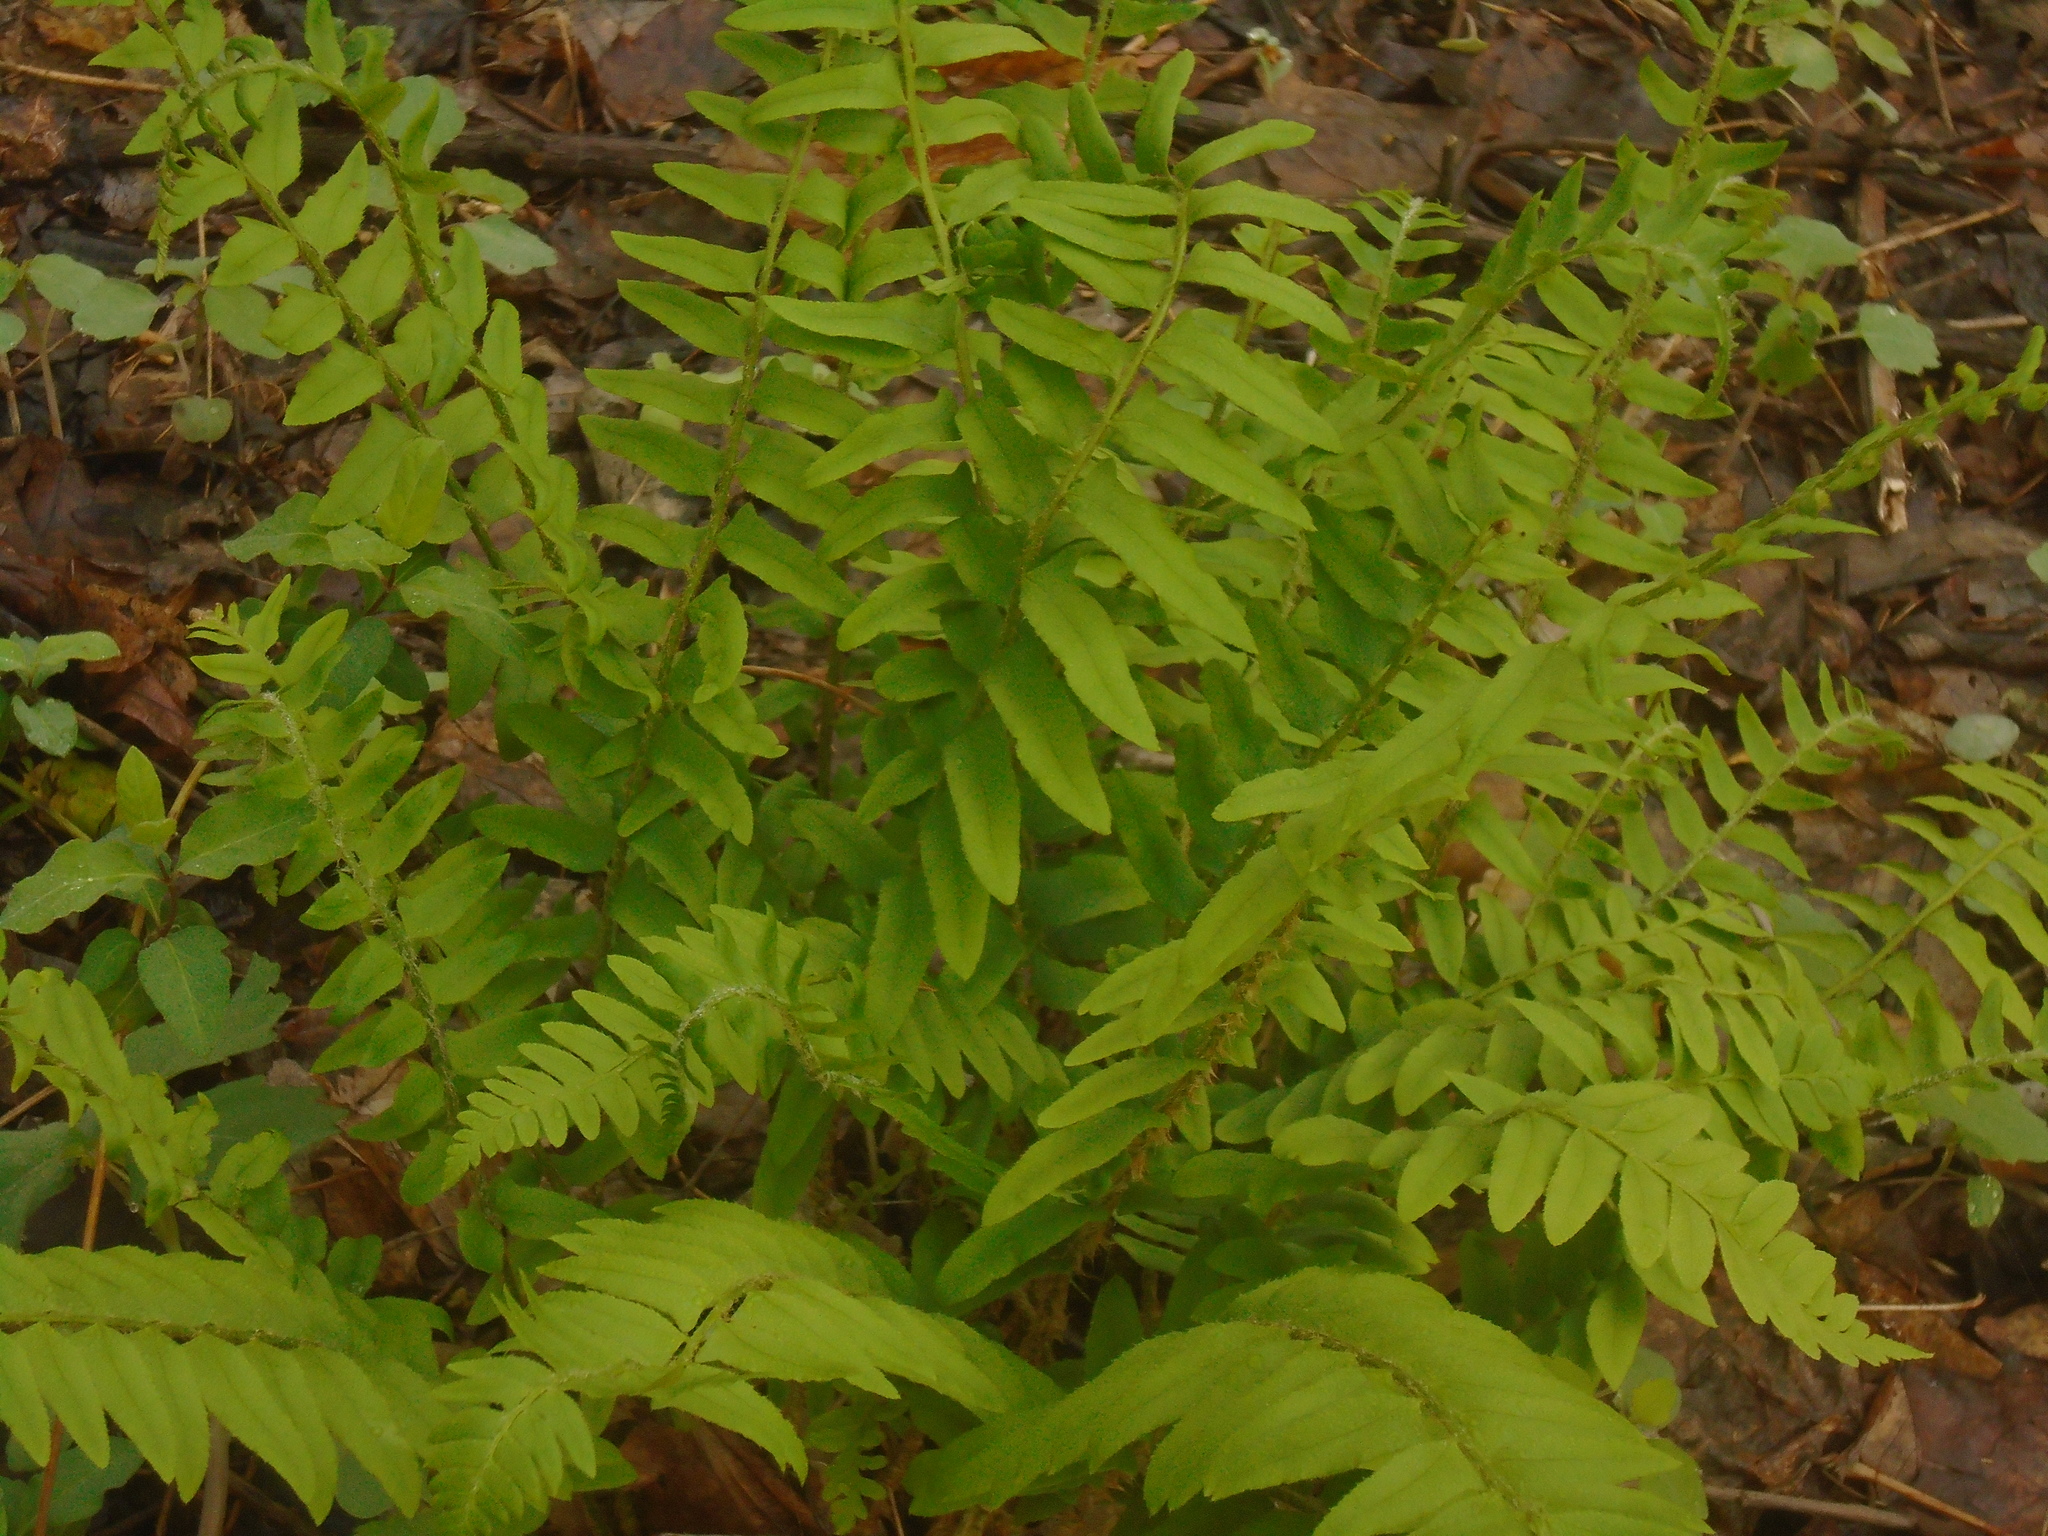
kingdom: Plantae
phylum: Tracheophyta
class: Polypodiopsida
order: Polypodiales
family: Dryopteridaceae
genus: Polystichum
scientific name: Polystichum acrostichoides
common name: Christmas fern
